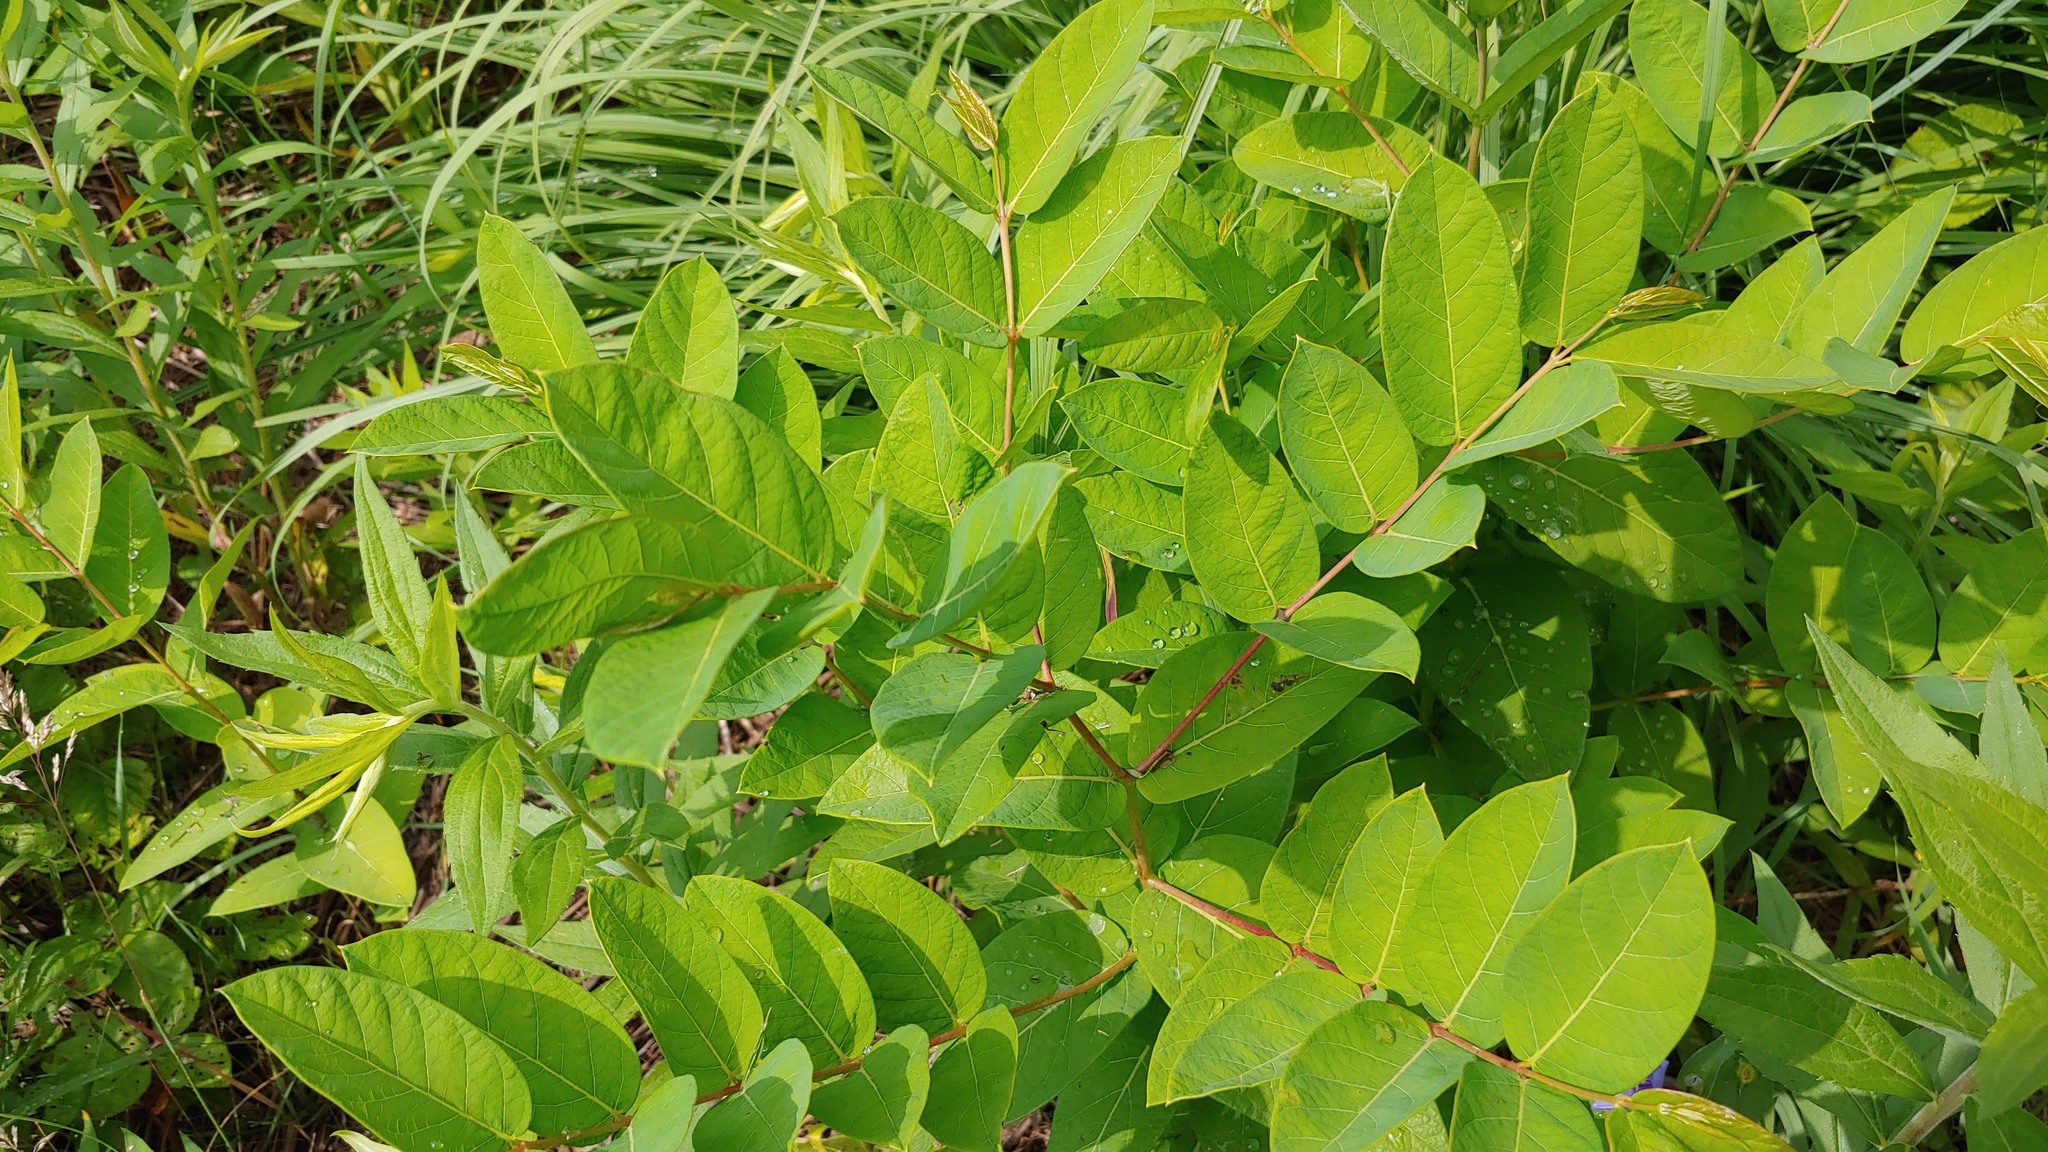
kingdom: Plantae
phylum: Tracheophyta
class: Magnoliopsida
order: Gentianales
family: Apocynaceae
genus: Apocynum
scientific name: Apocynum androsaemifolium
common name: Spreading dogbane
